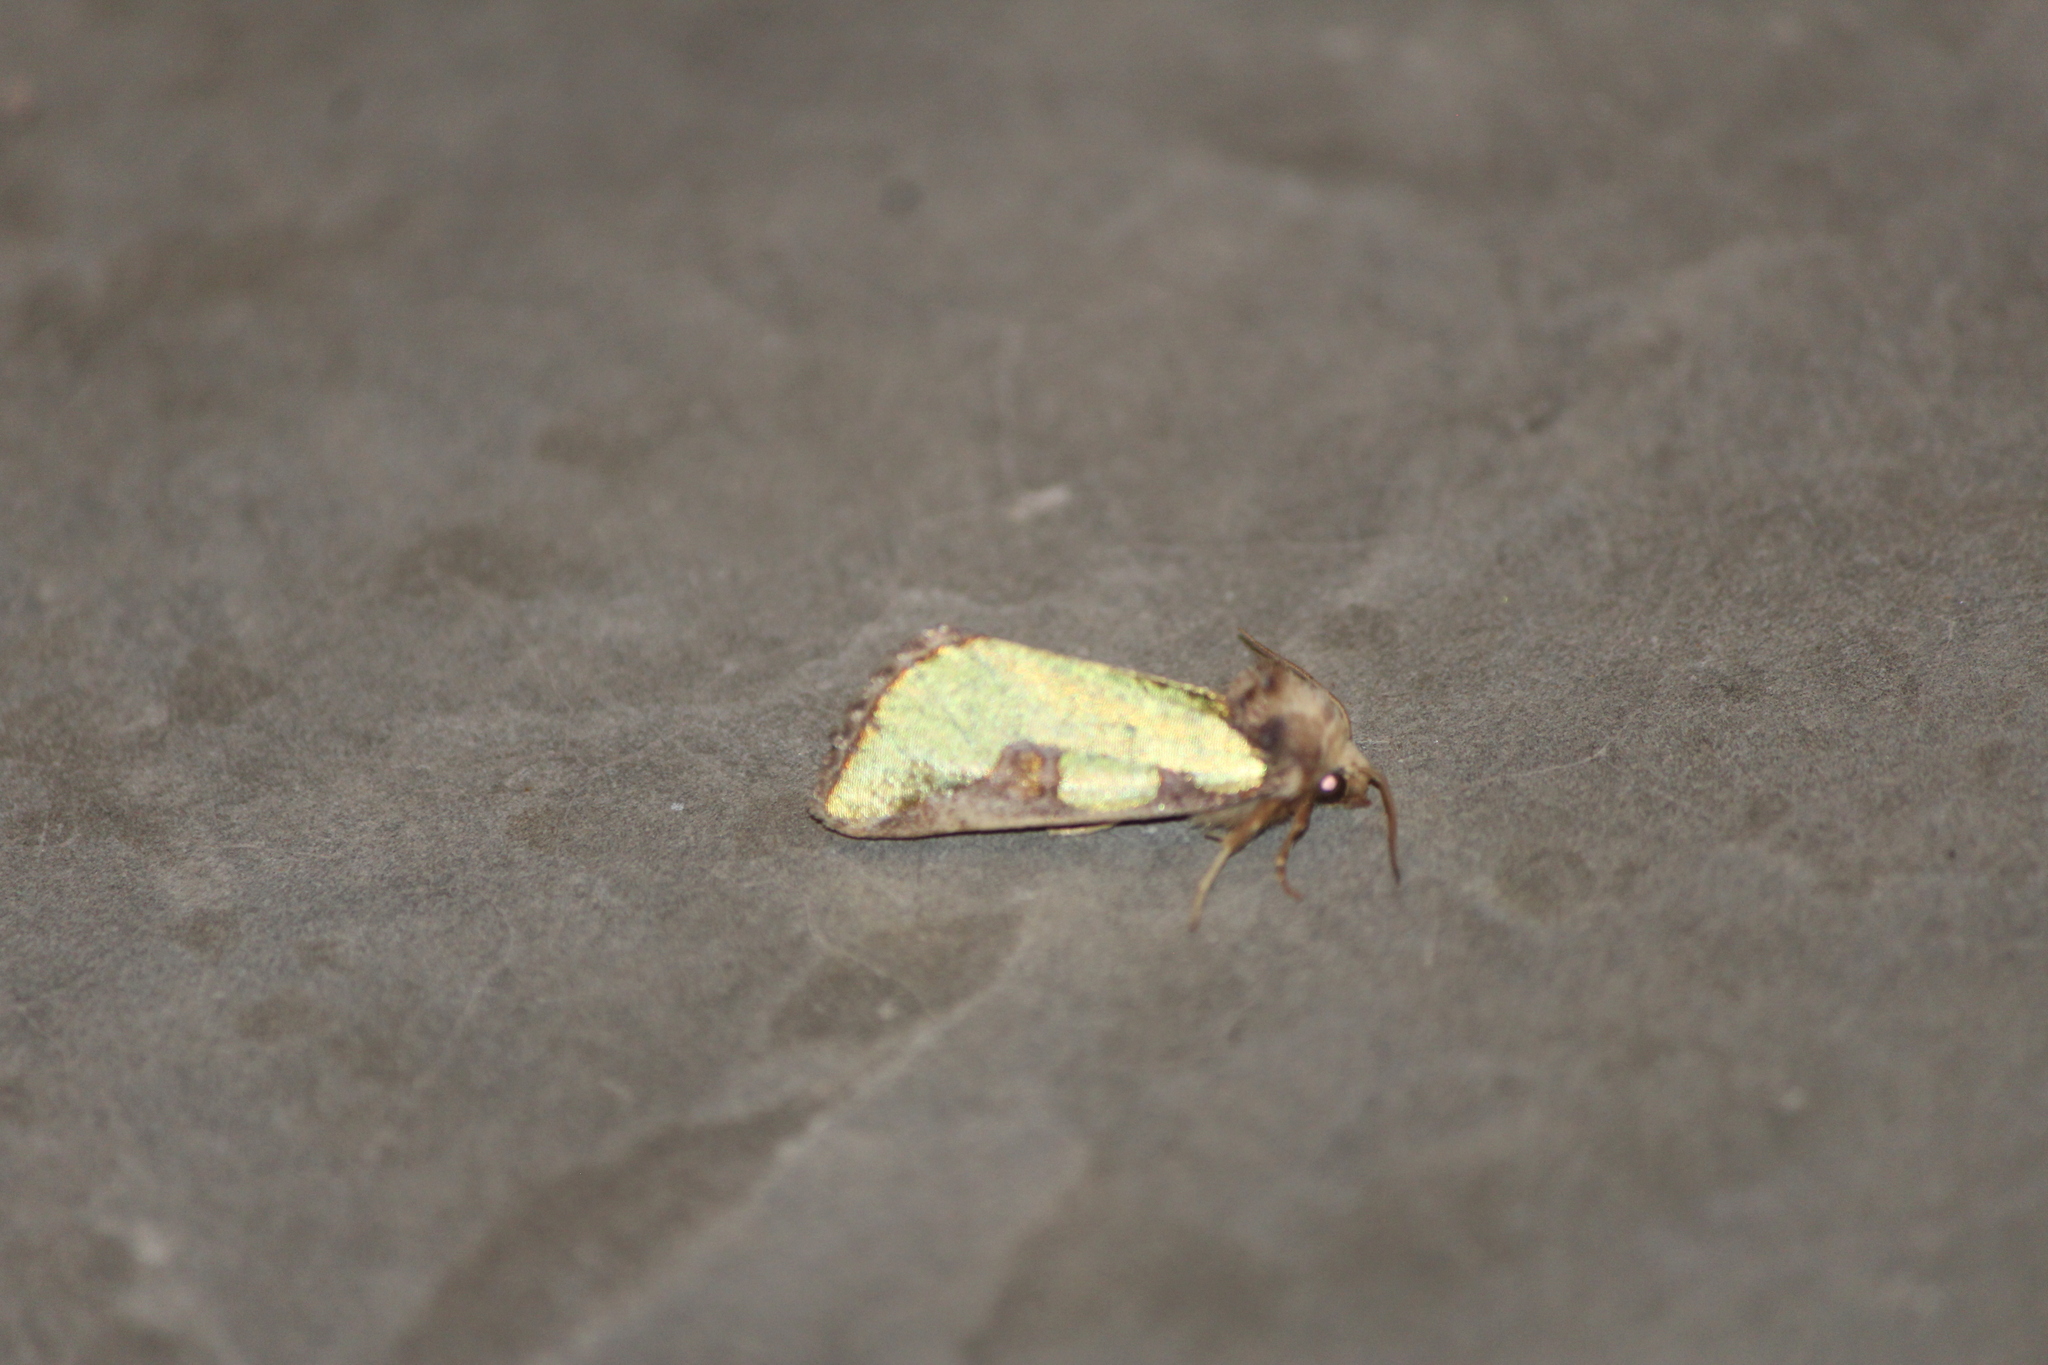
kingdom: Animalia
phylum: Arthropoda
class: Insecta
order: Lepidoptera
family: Noctuidae
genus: Chalcopasta
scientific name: Chalcopasta territans
